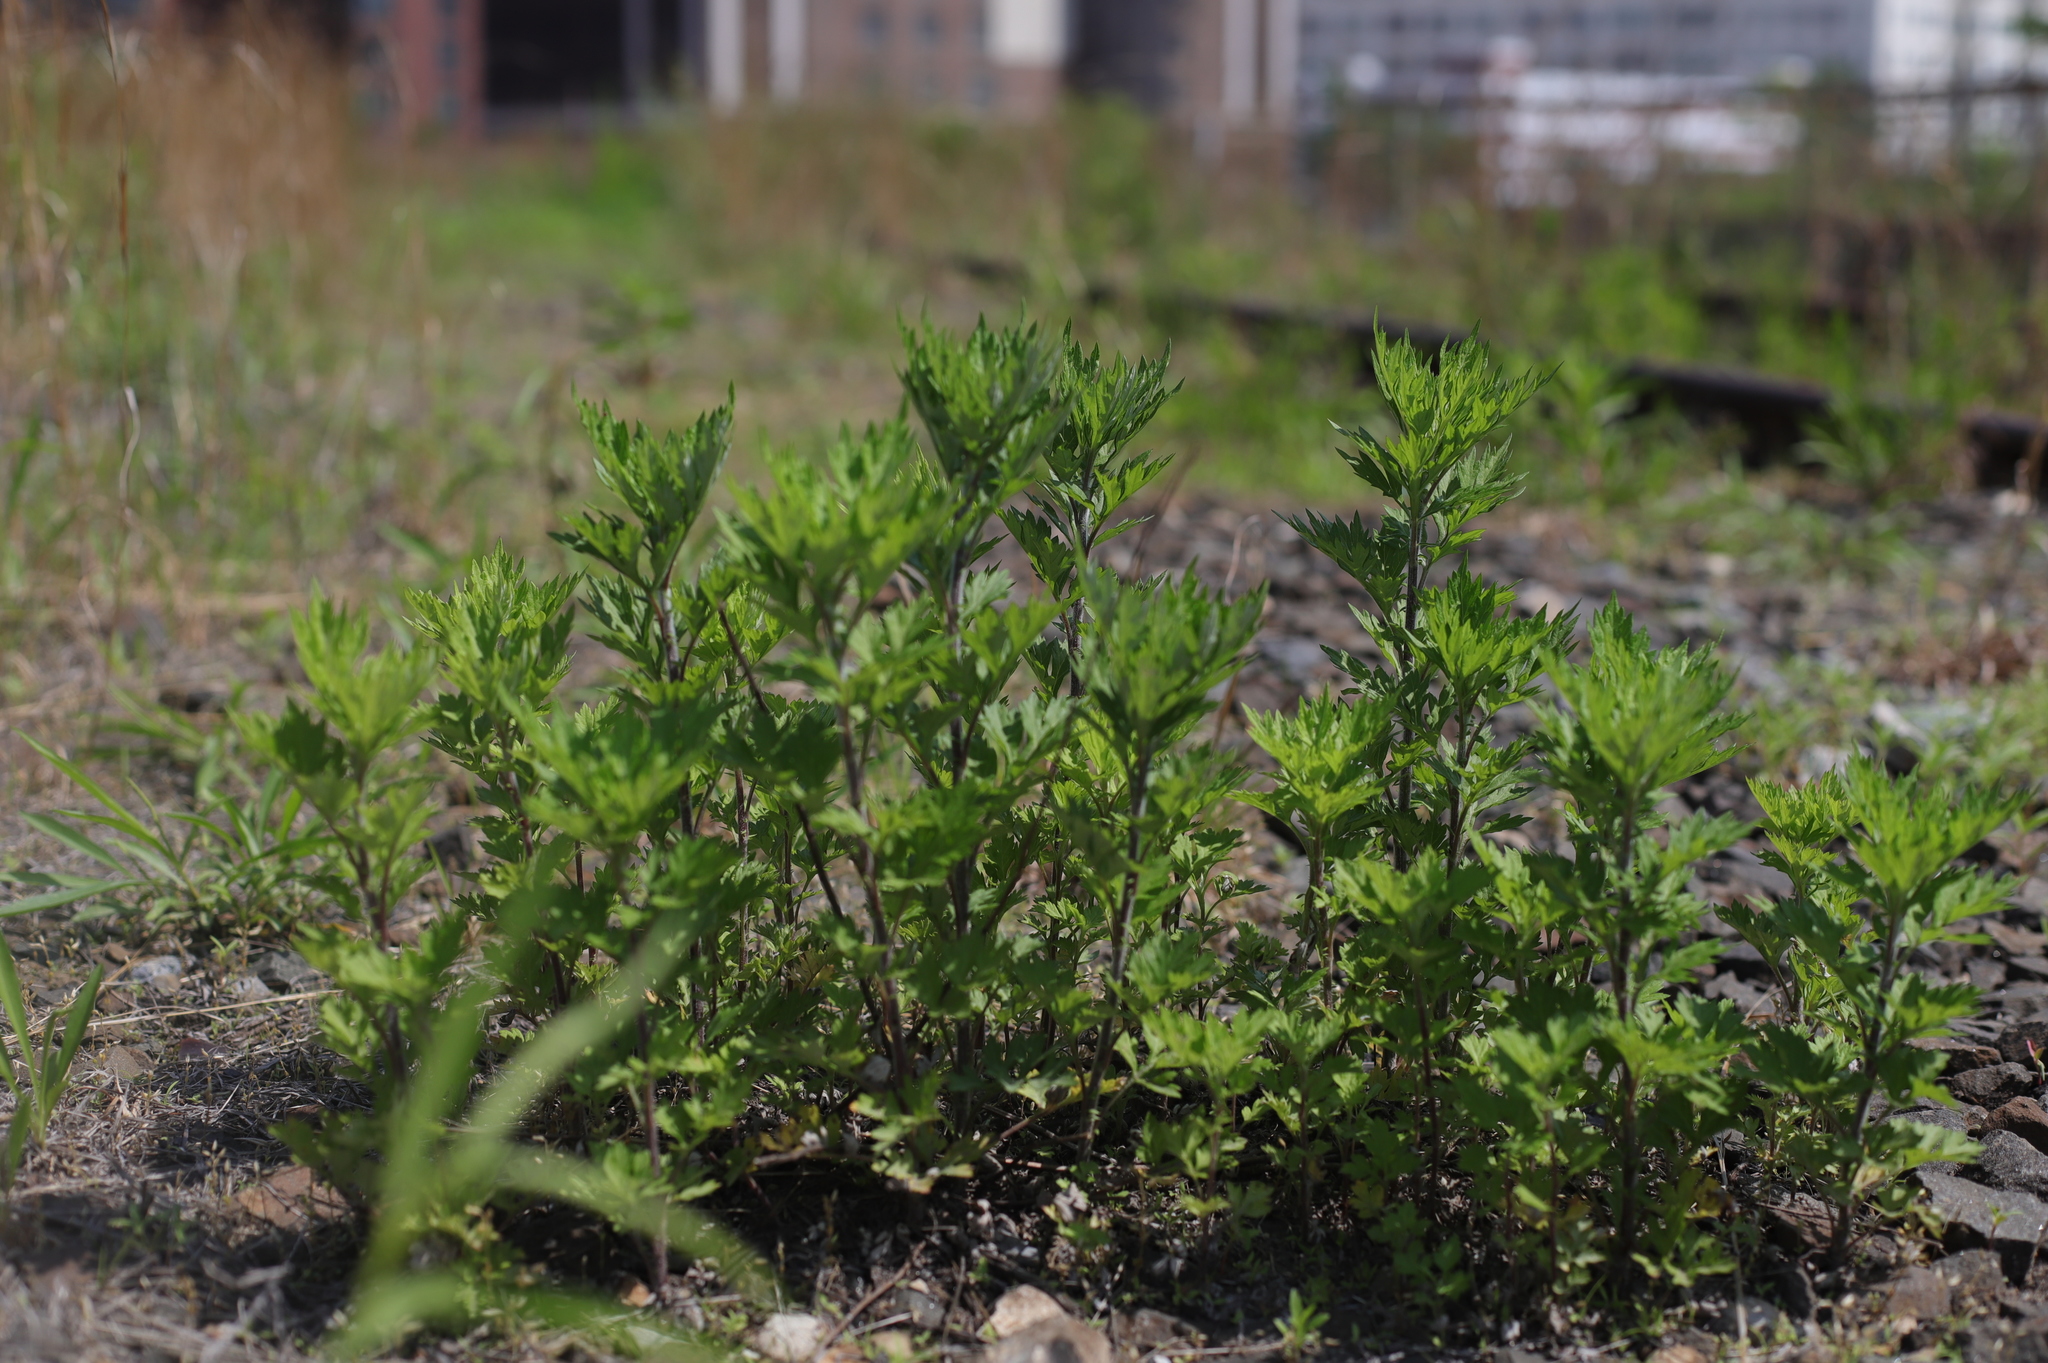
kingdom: Plantae
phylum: Tracheophyta
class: Magnoliopsida
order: Asterales
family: Asteraceae
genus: Artemisia
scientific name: Artemisia vulgaris
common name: Mugwort
